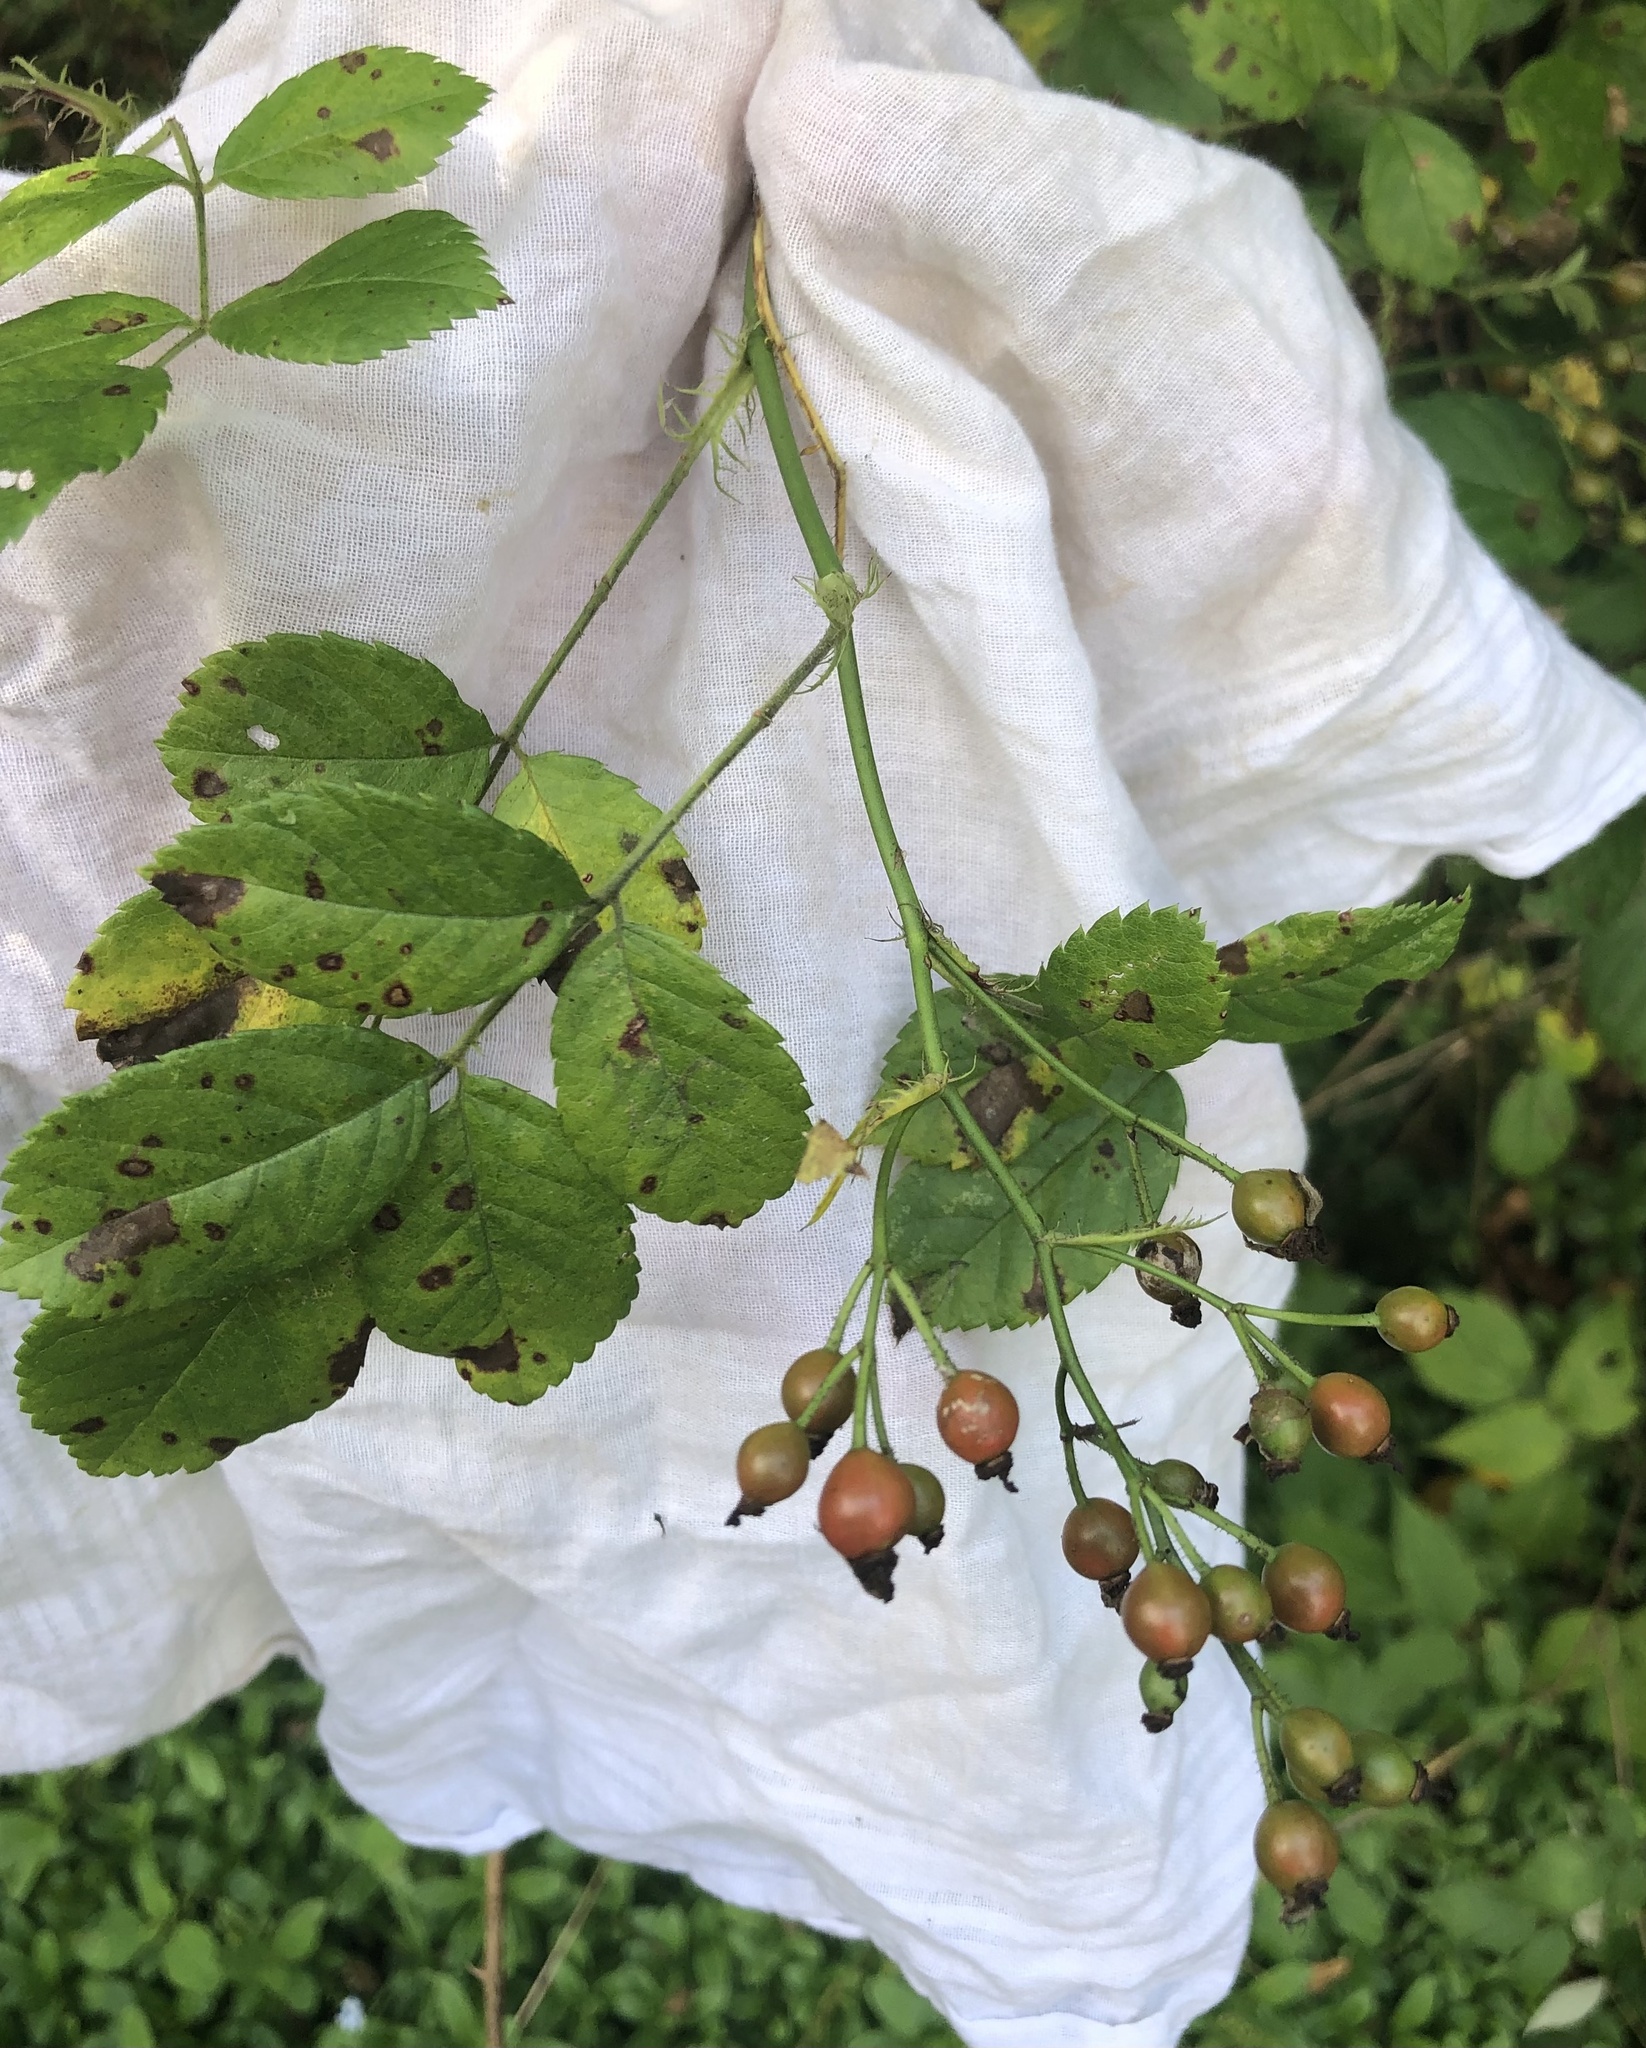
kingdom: Plantae
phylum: Tracheophyta
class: Magnoliopsida
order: Rosales
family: Rosaceae
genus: Rosa
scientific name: Rosa multiflora
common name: Multiflora rose
